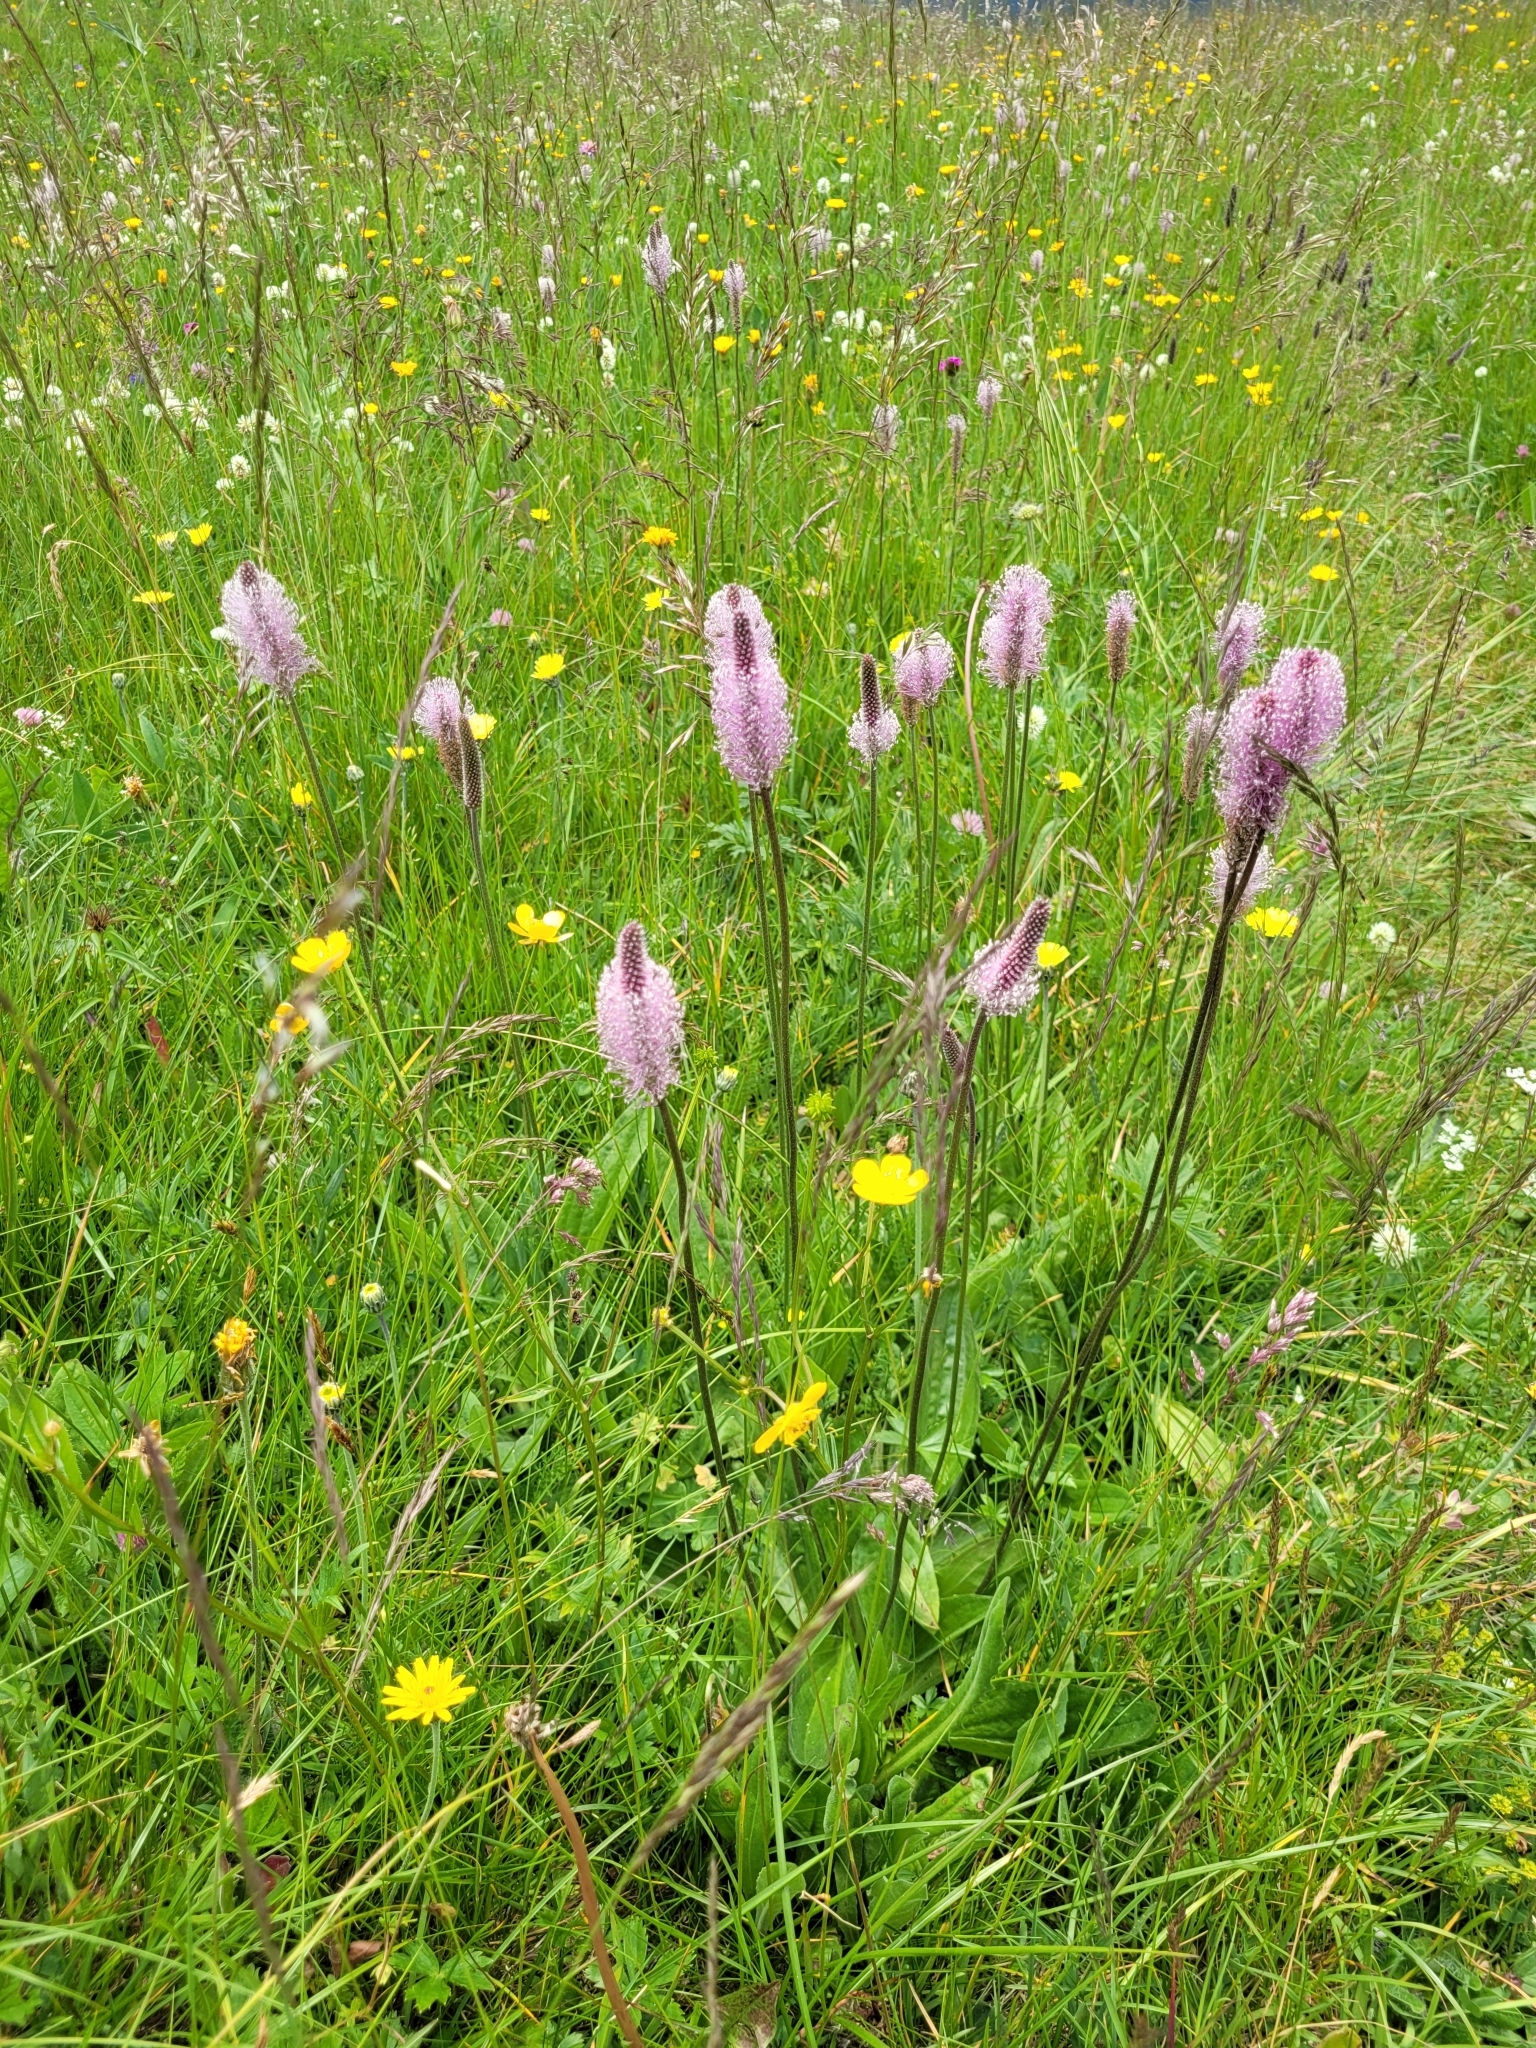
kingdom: Plantae
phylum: Tracheophyta
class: Magnoliopsida
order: Lamiales
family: Plantaginaceae
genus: Plantago
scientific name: Plantago media
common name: Hoary plantain
